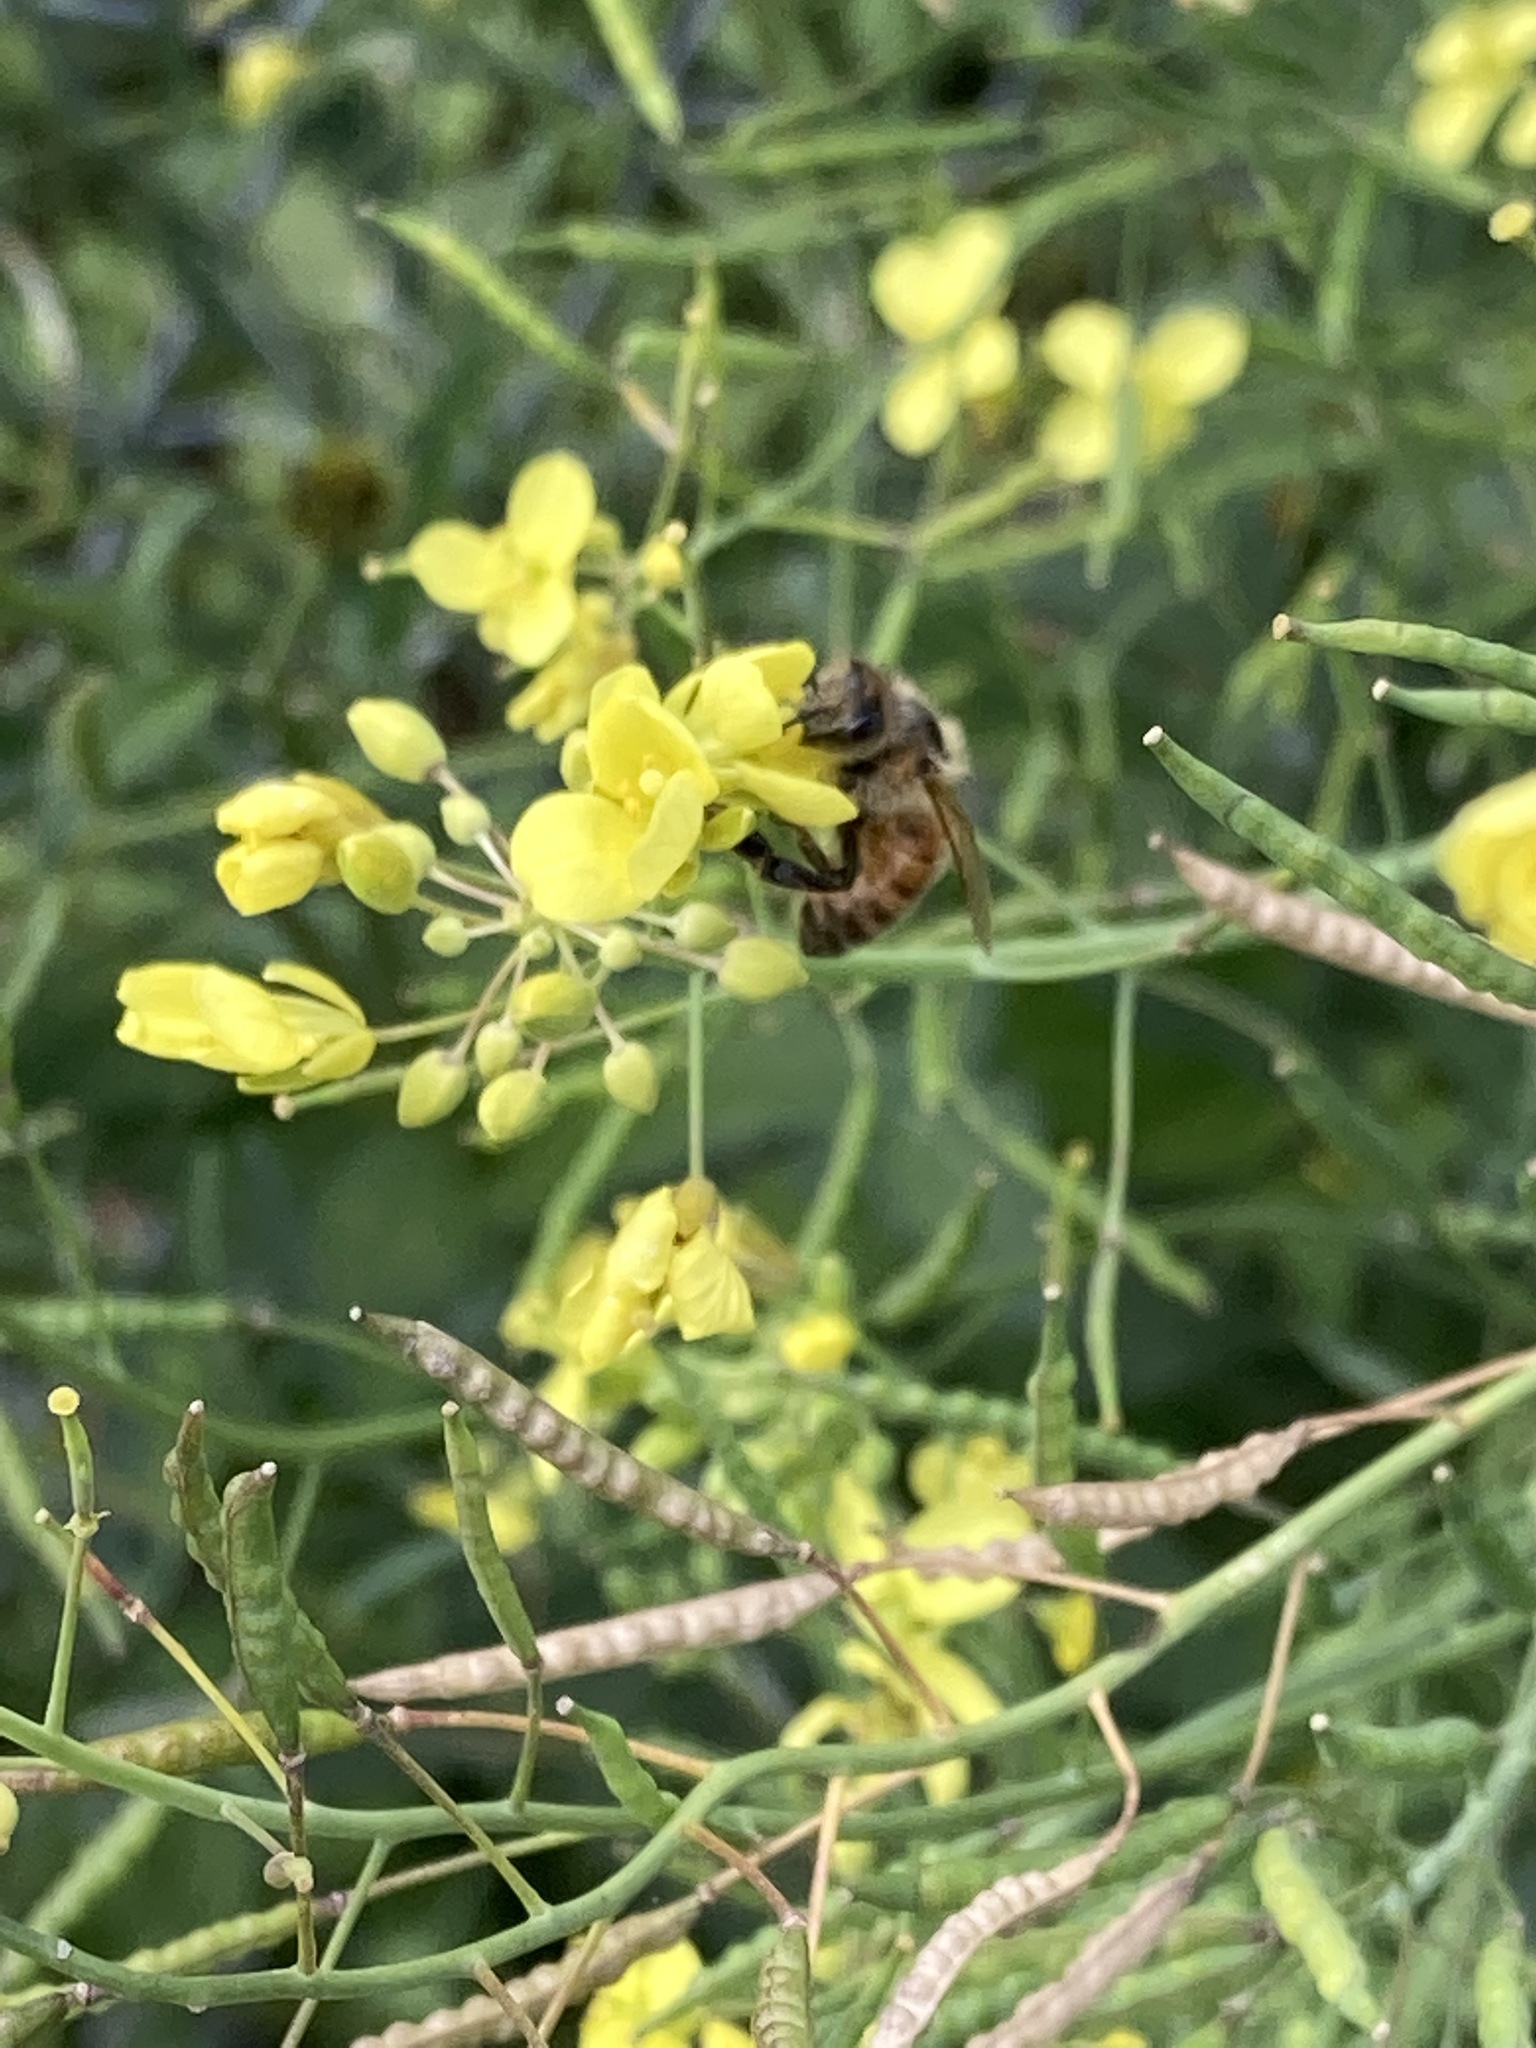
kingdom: Animalia
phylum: Arthropoda
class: Insecta
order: Hymenoptera
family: Apidae
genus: Apis
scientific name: Apis mellifera
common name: Honey bee
